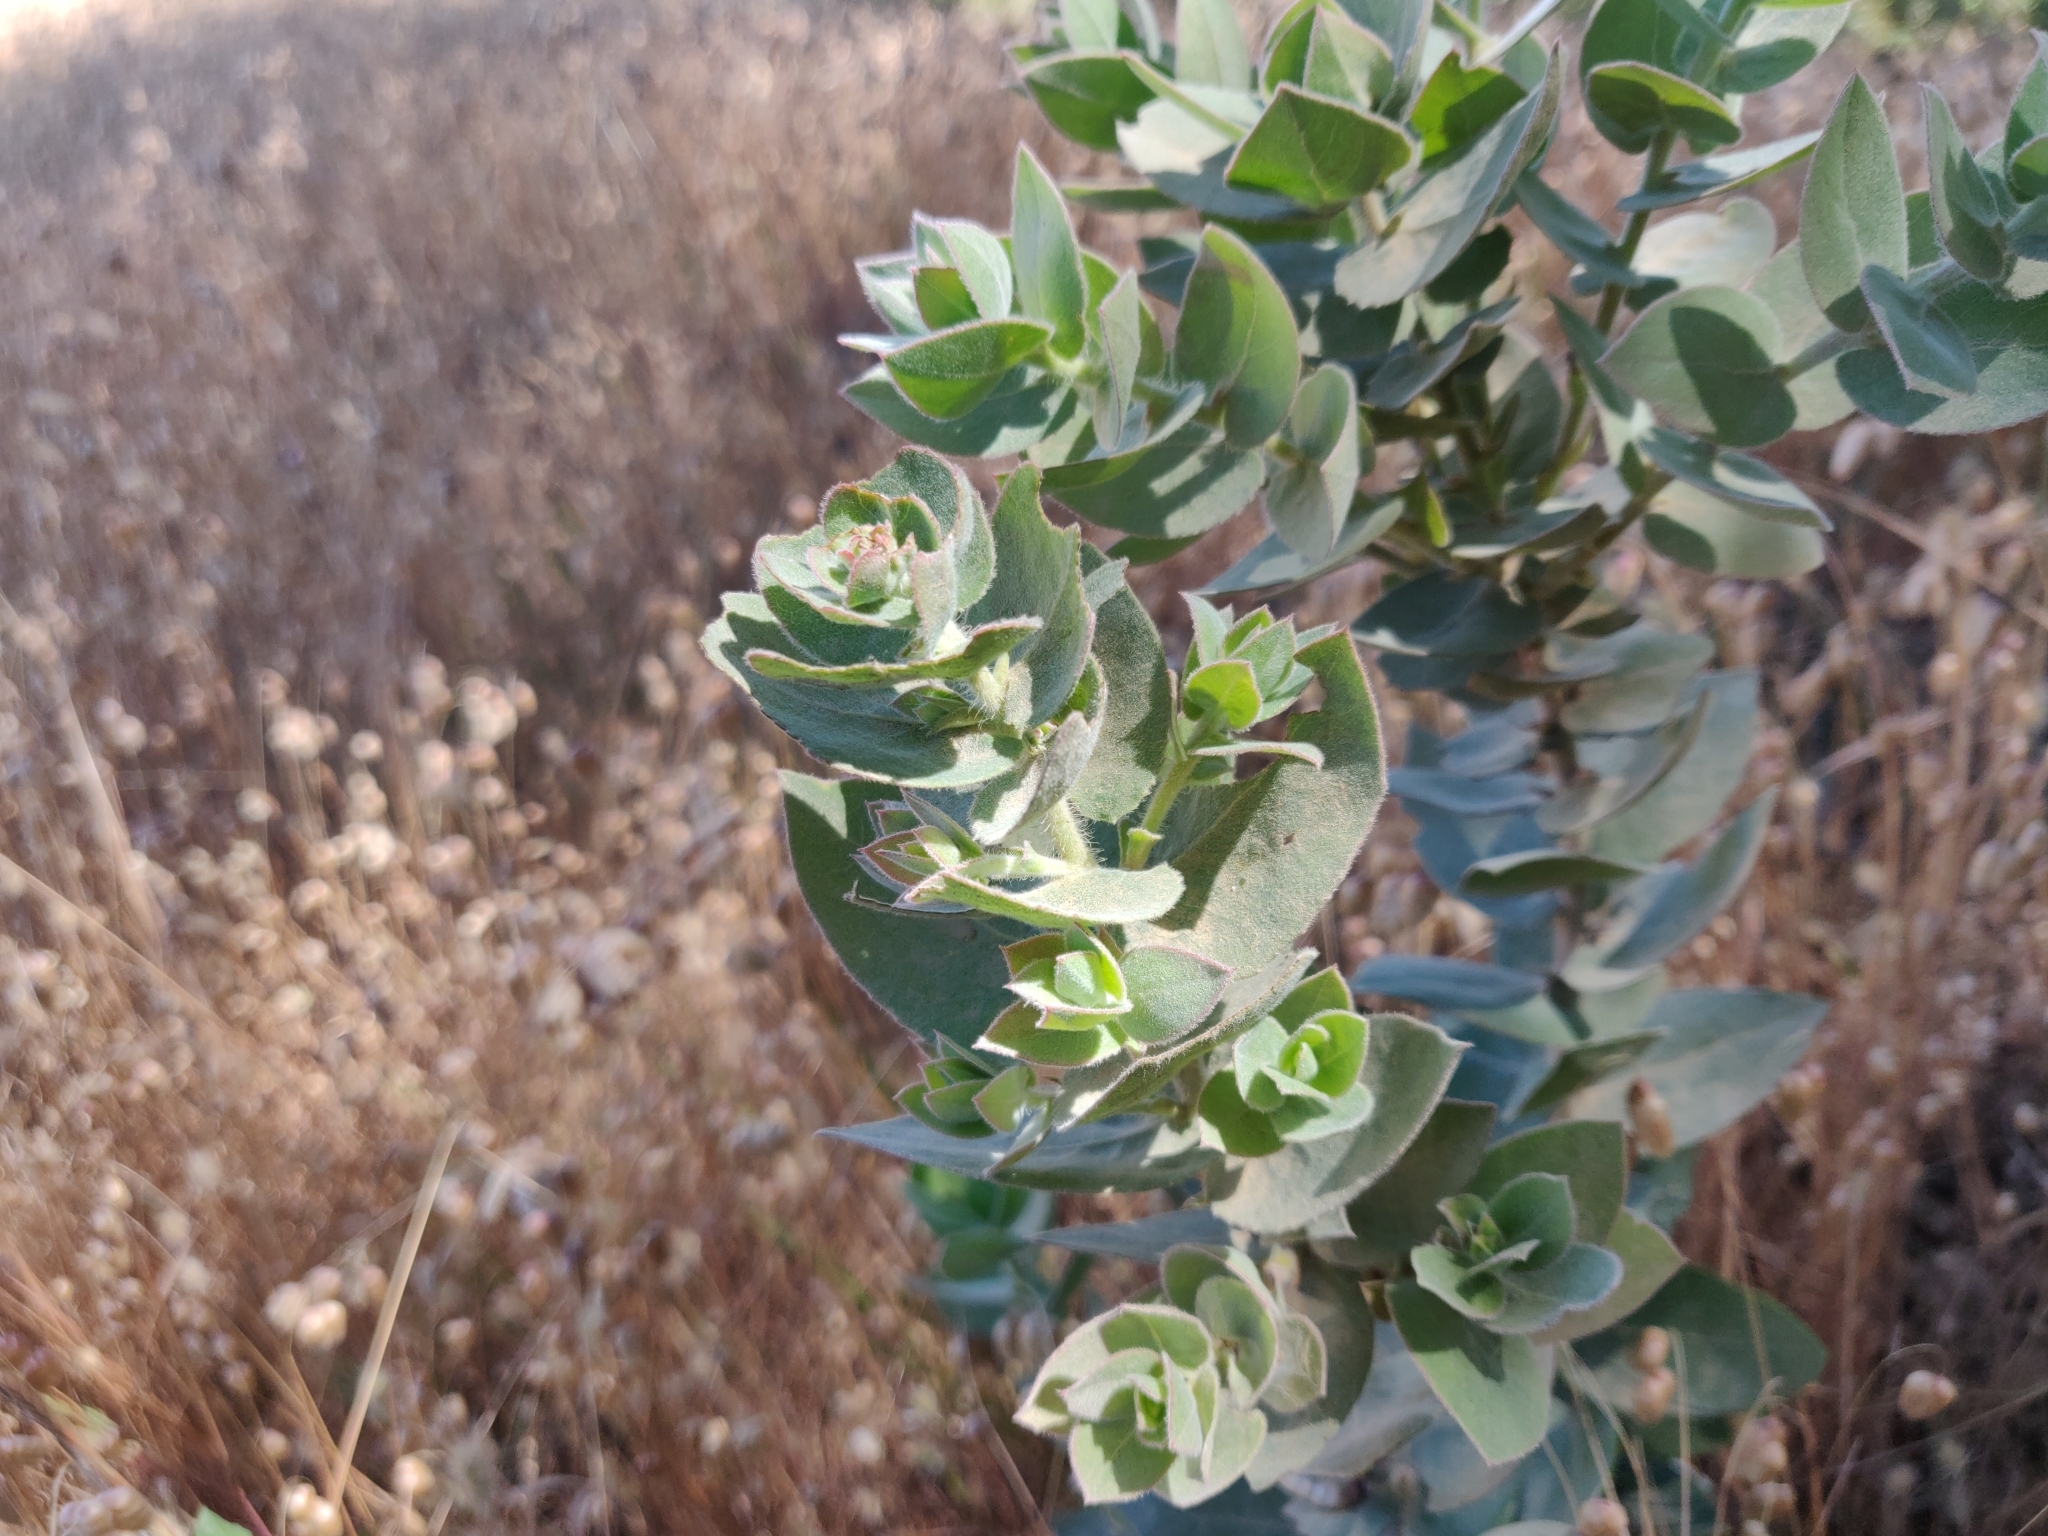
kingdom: Plantae
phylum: Tracheophyta
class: Magnoliopsida
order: Ericales
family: Ericaceae
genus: Arctostaphylos
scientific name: Arctostaphylos auriculata
